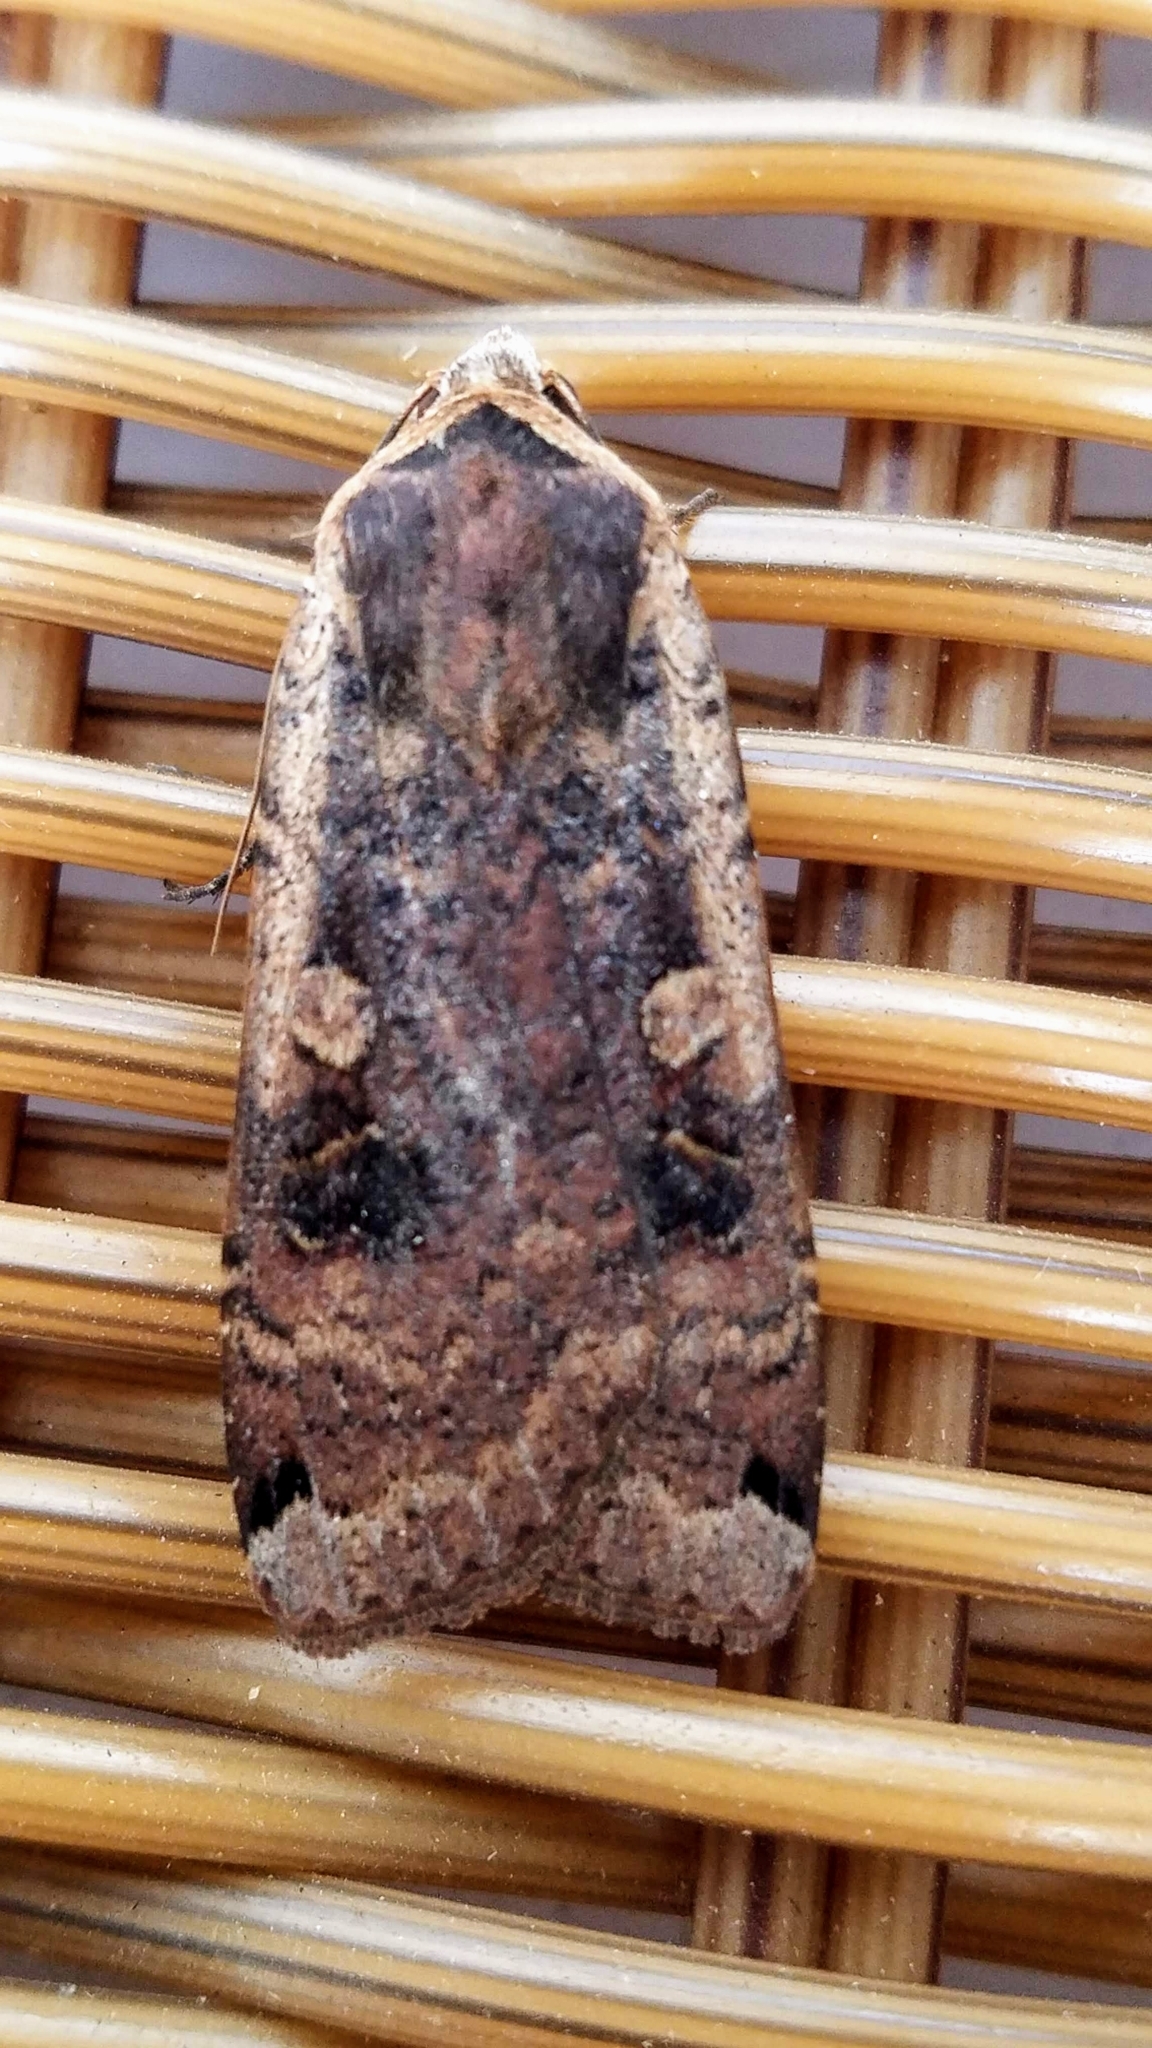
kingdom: Animalia
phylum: Arthropoda
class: Insecta
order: Lepidoptera
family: Noctuidae
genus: Noctua
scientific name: Noctua pronuba
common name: Large yellow underwing
